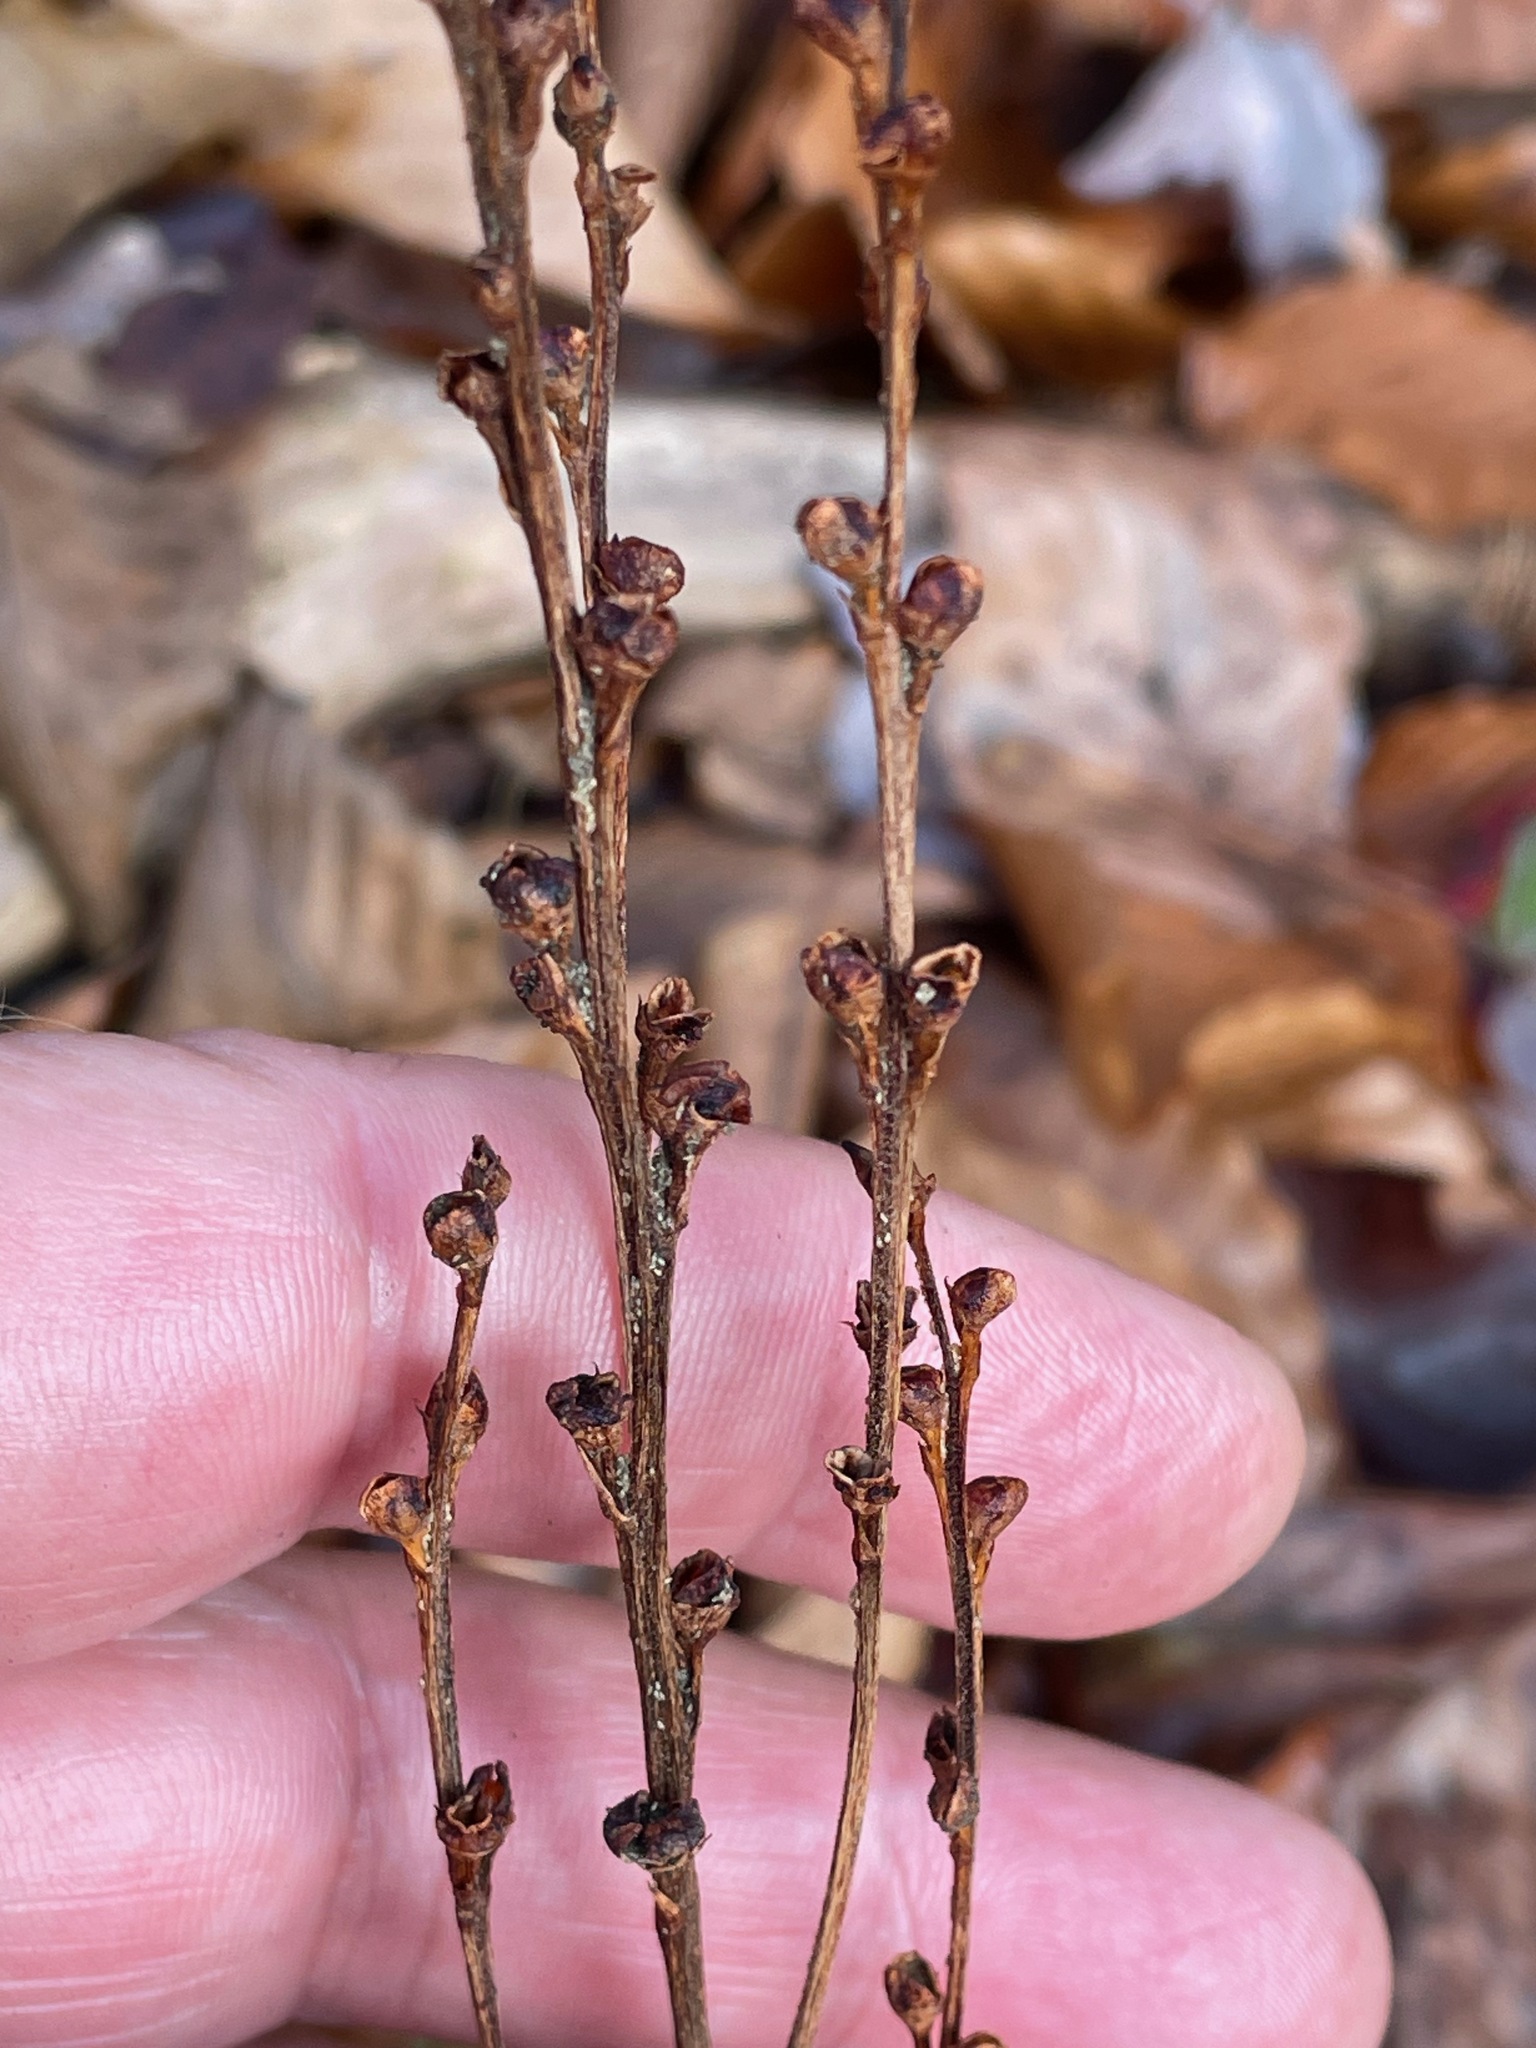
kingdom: Plantae
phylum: Tracheophyta
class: Magnoliopsida
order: Lamiales
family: Orobanchaceae
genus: Epifagus
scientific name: Epifagus virginiana
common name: Beechdrops
